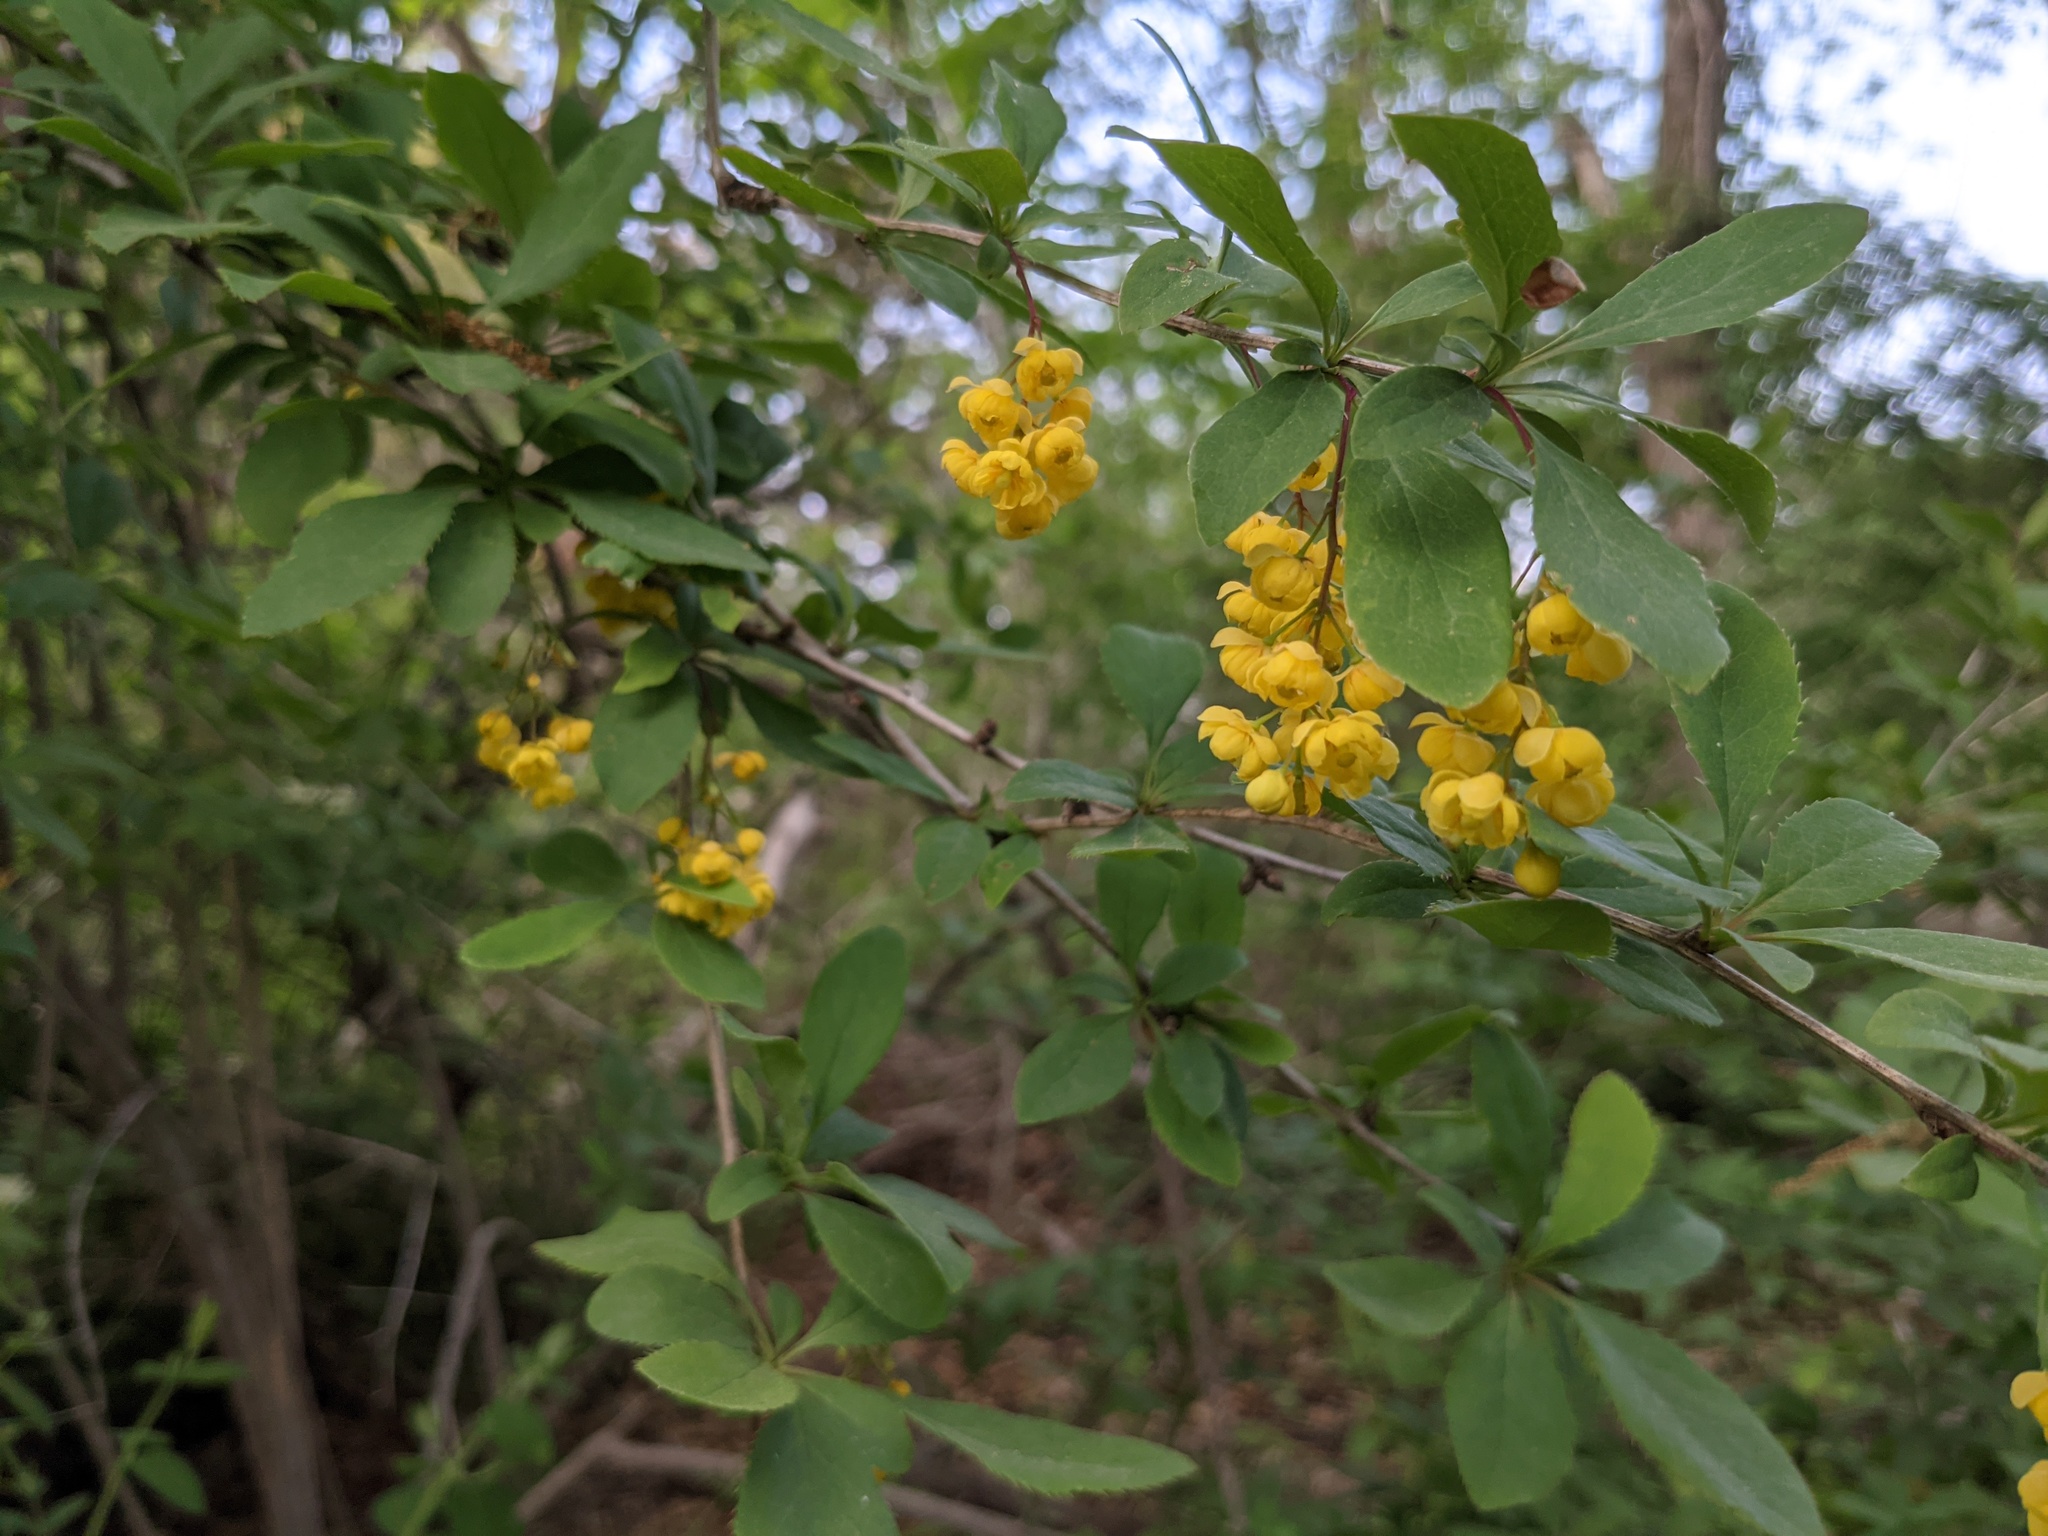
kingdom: Plantae
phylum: Tracheophyta
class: Magnoliopsida
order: Ranunculales
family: Berberidaceae
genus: Berberis
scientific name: Berberis vulgaris
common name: Barberry
